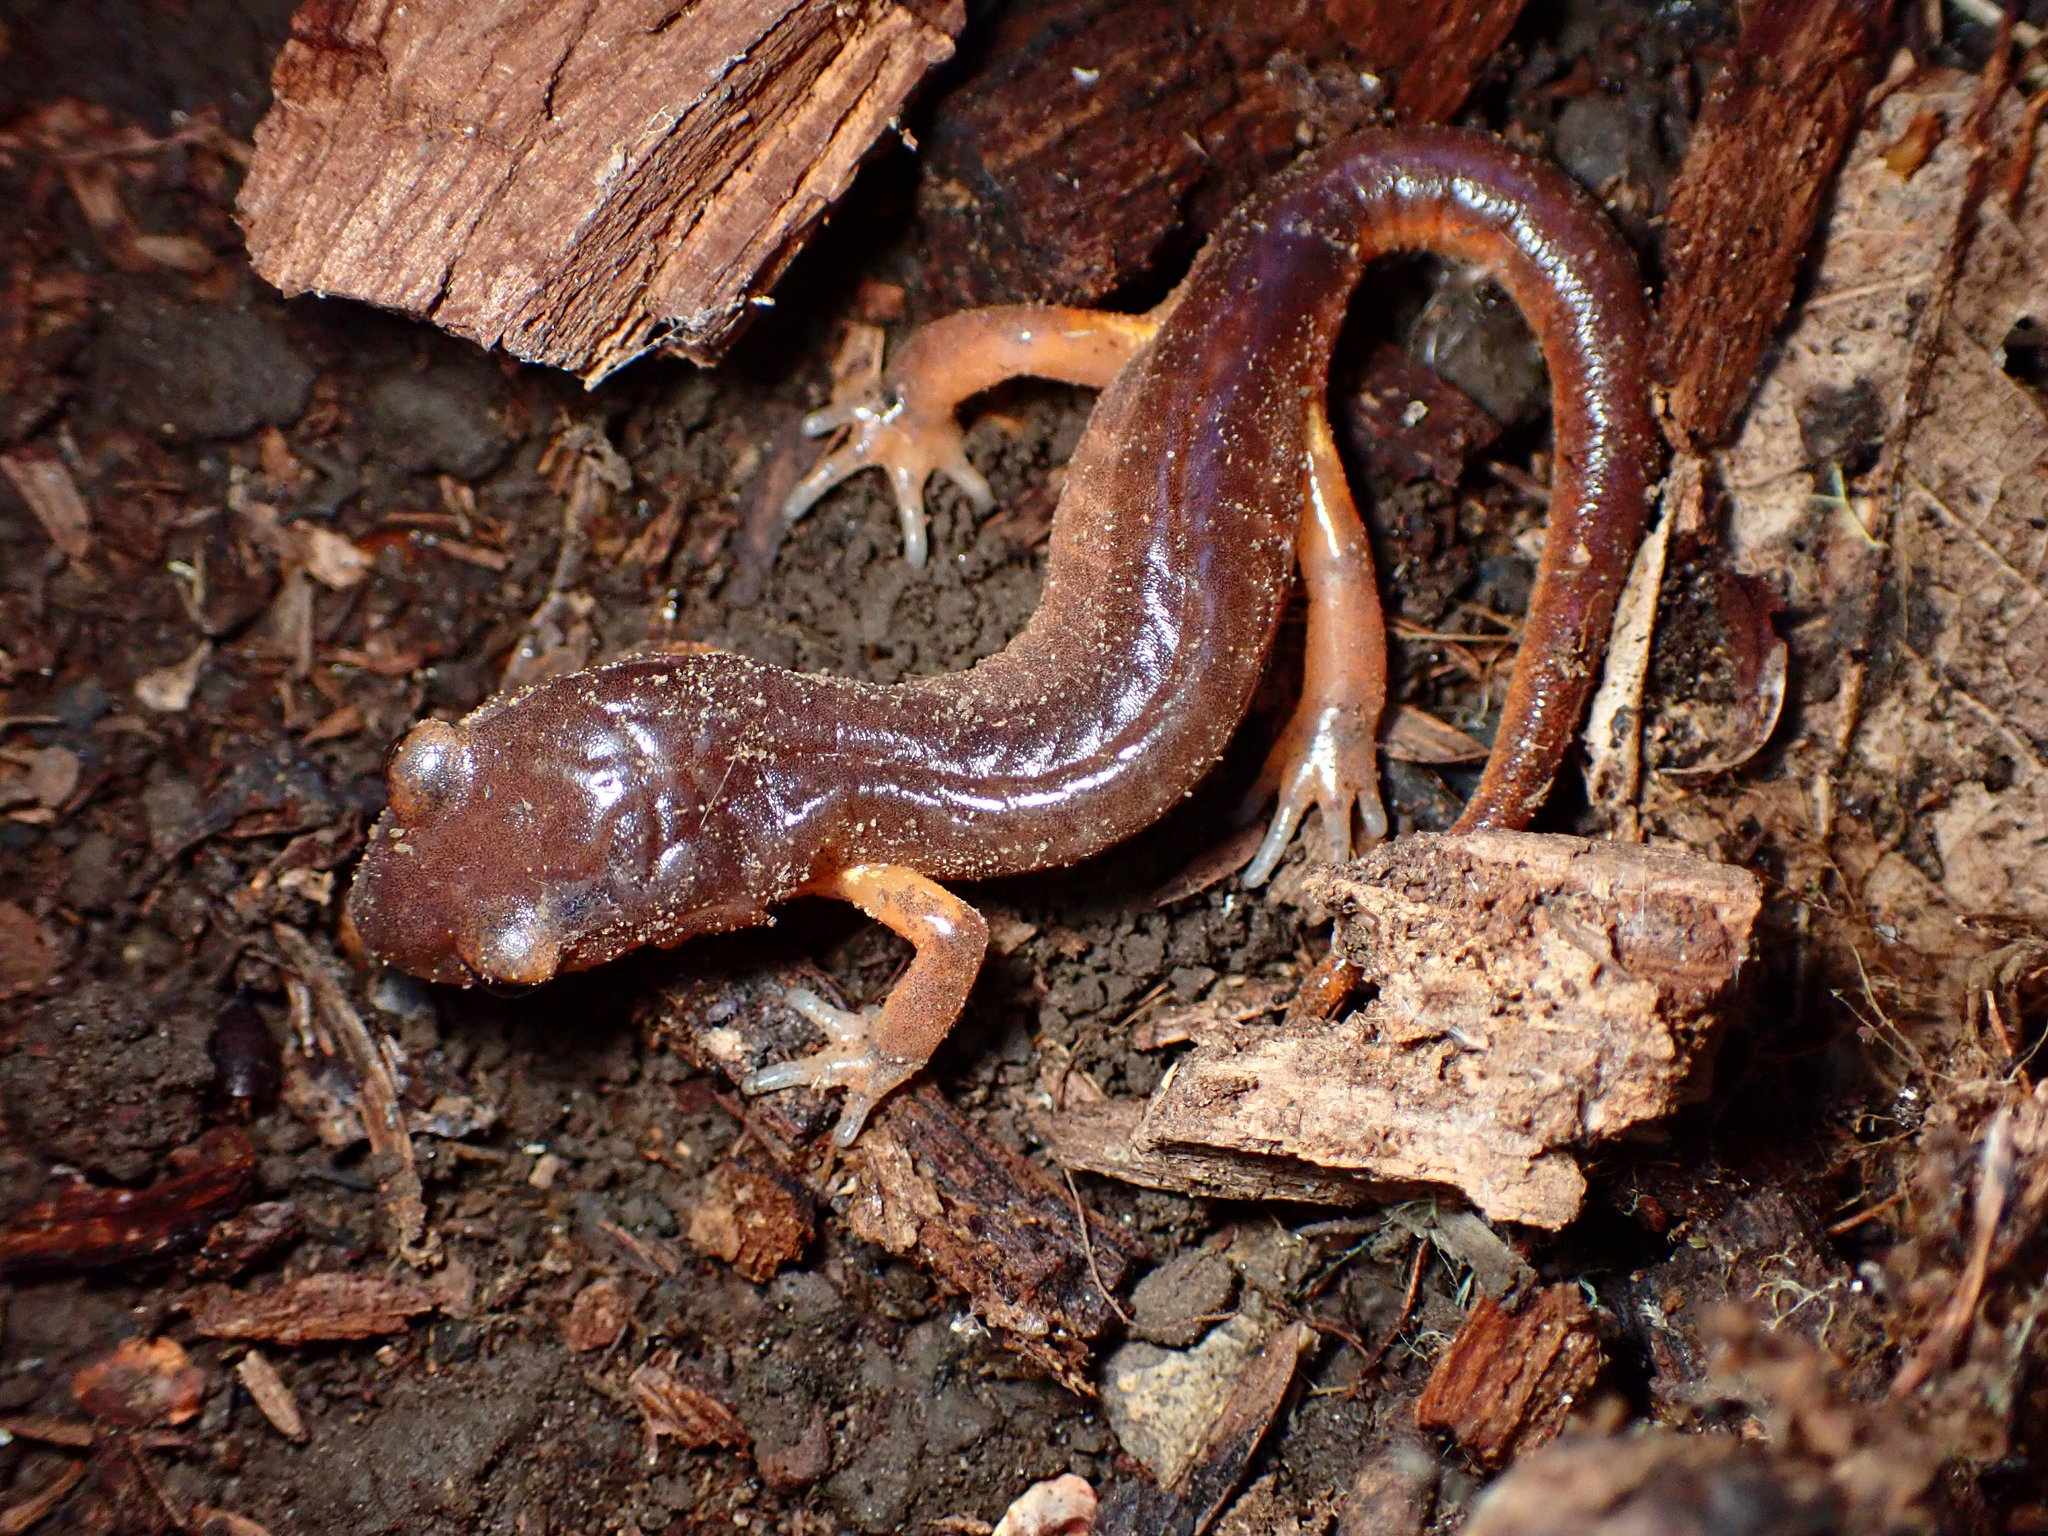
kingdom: Animalia
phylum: Chordata
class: Amphibia
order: Caudata
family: Plethodontidae
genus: Ensatina
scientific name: Ensatina eschscholtzii
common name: Ensatina
